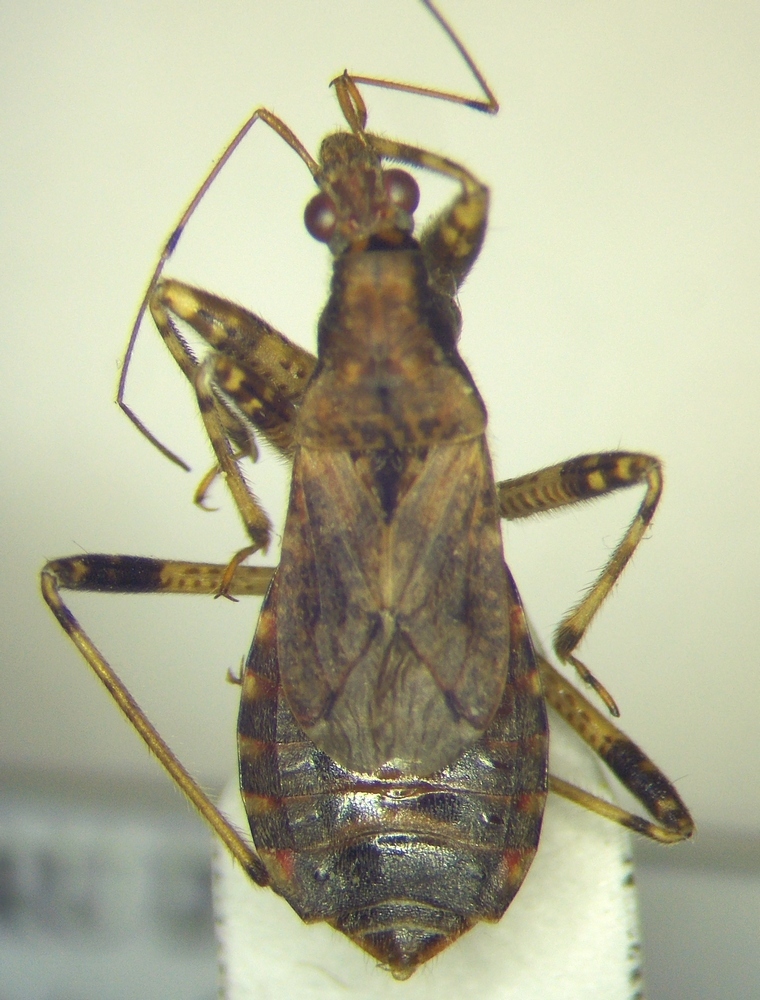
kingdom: Animalia
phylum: Arthropoda
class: Insecta
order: Hemiptera
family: Nabidae
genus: Himacerus
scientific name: Himacerus mirmicoides
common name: Ant damsel bug
